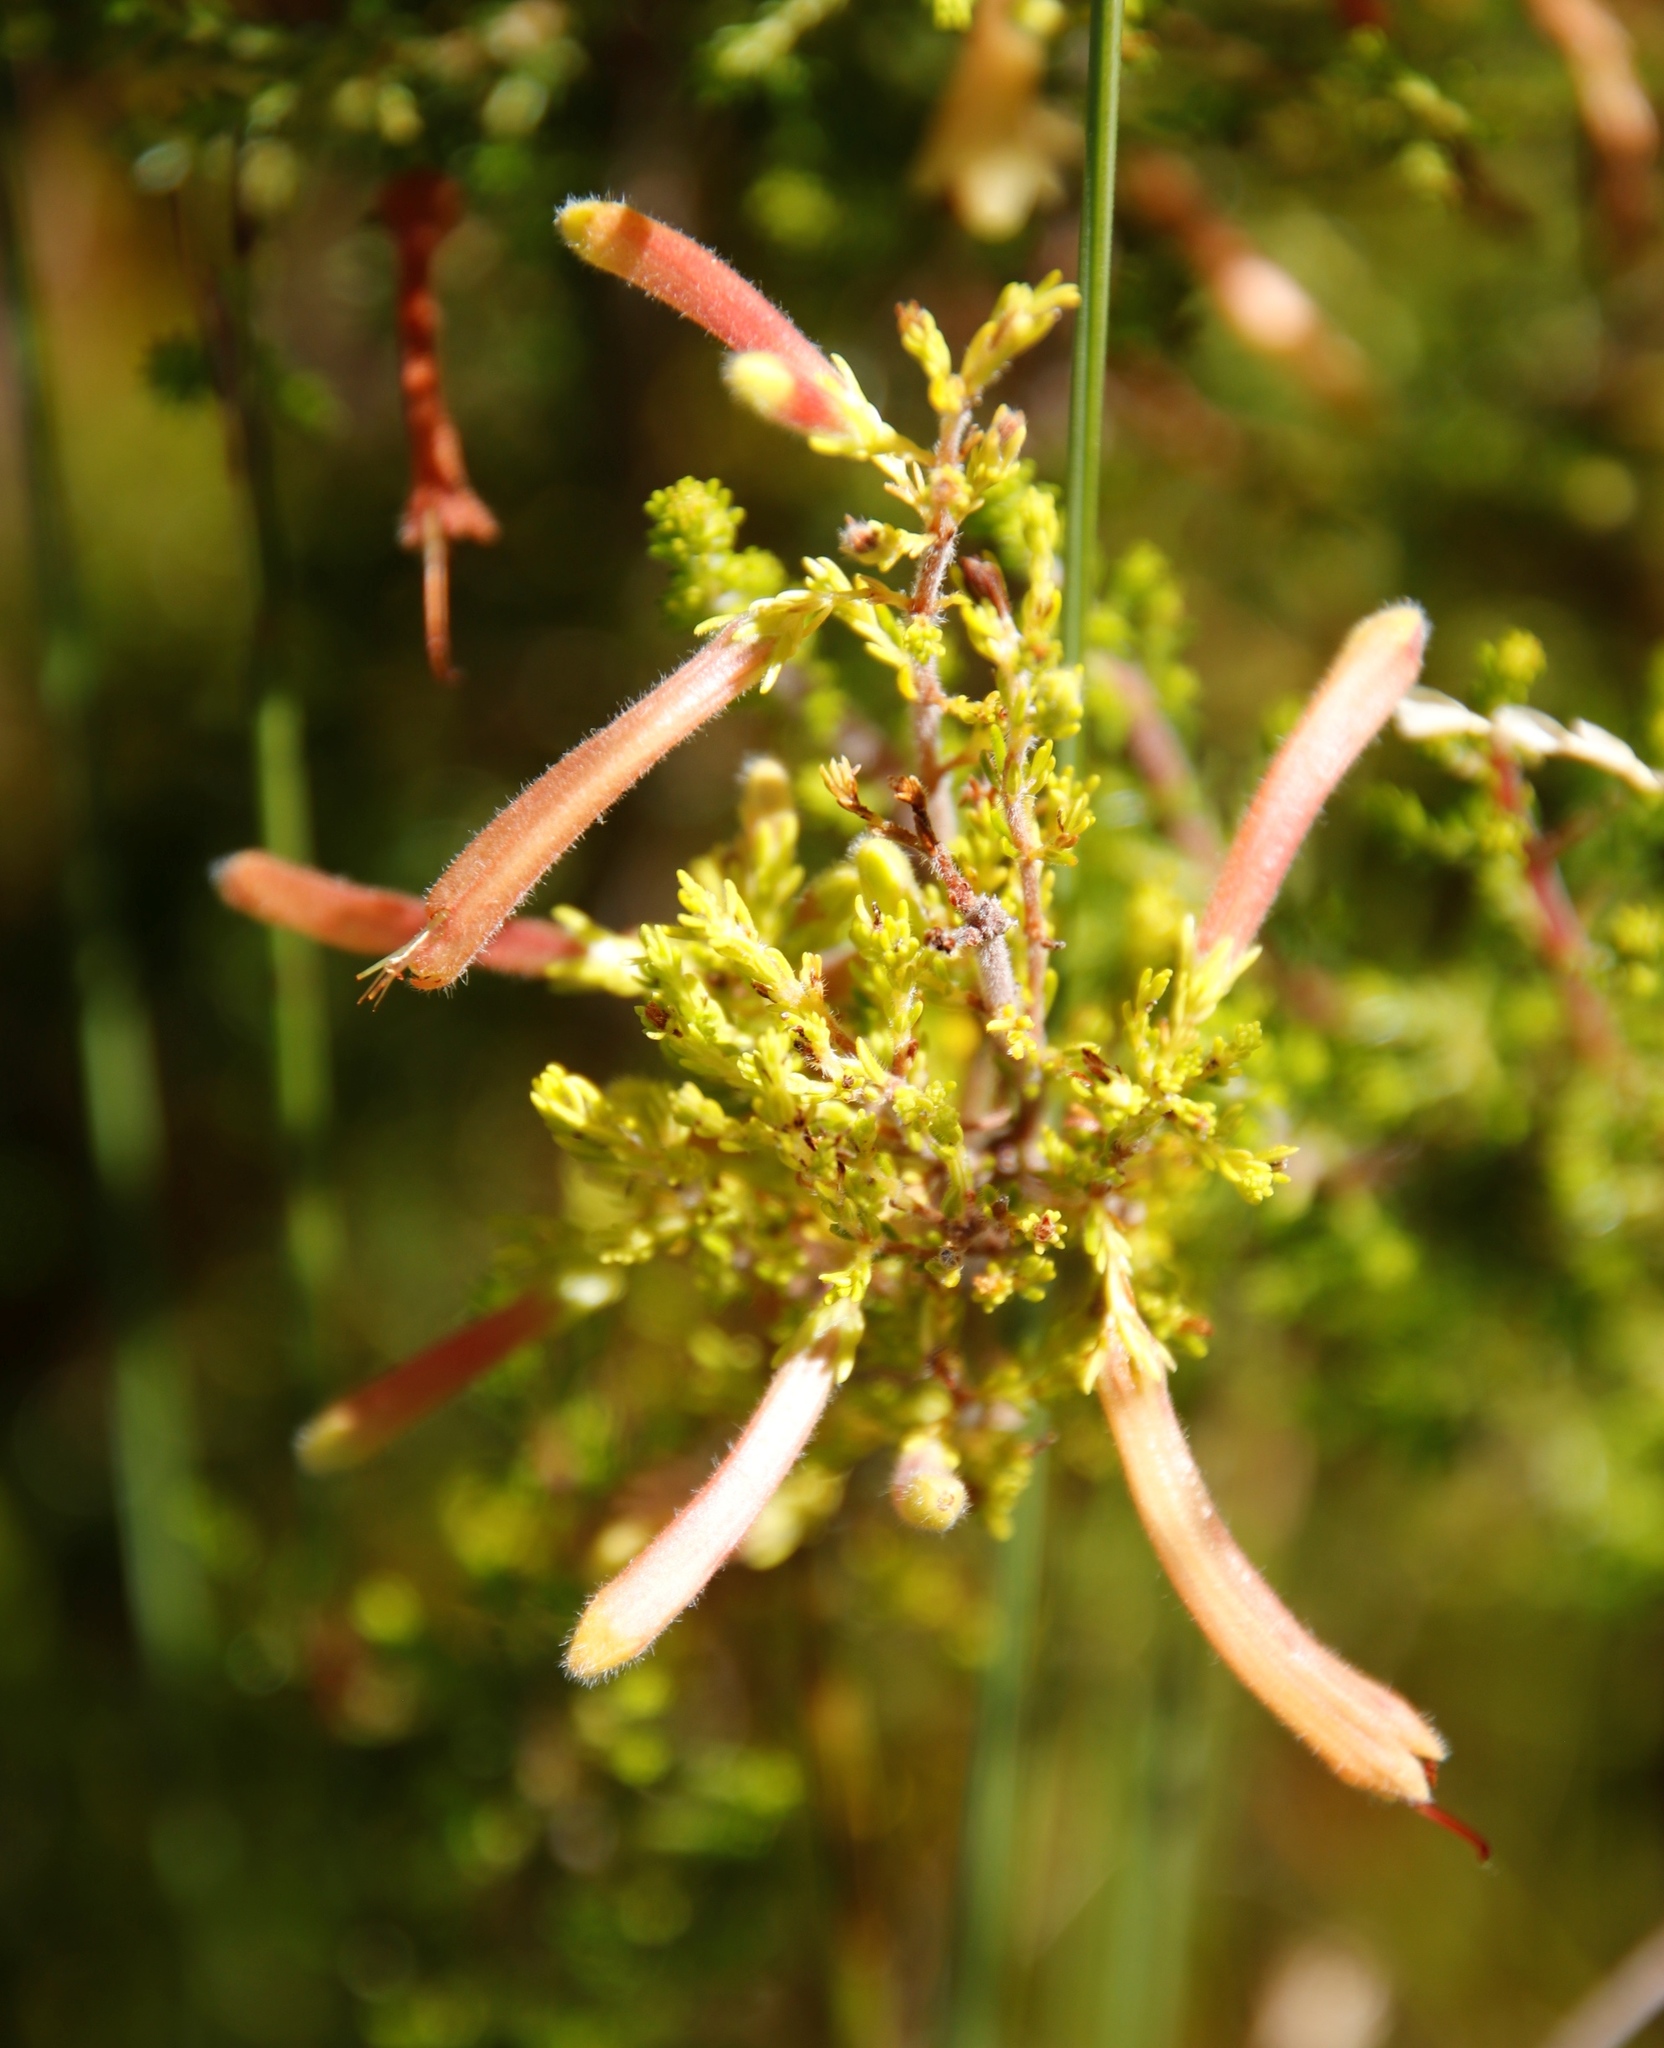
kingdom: Plantae
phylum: Tracheophyta
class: Magnoliopsida
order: Ericales
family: Ericaceae
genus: Erica
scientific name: Erica curviflora
